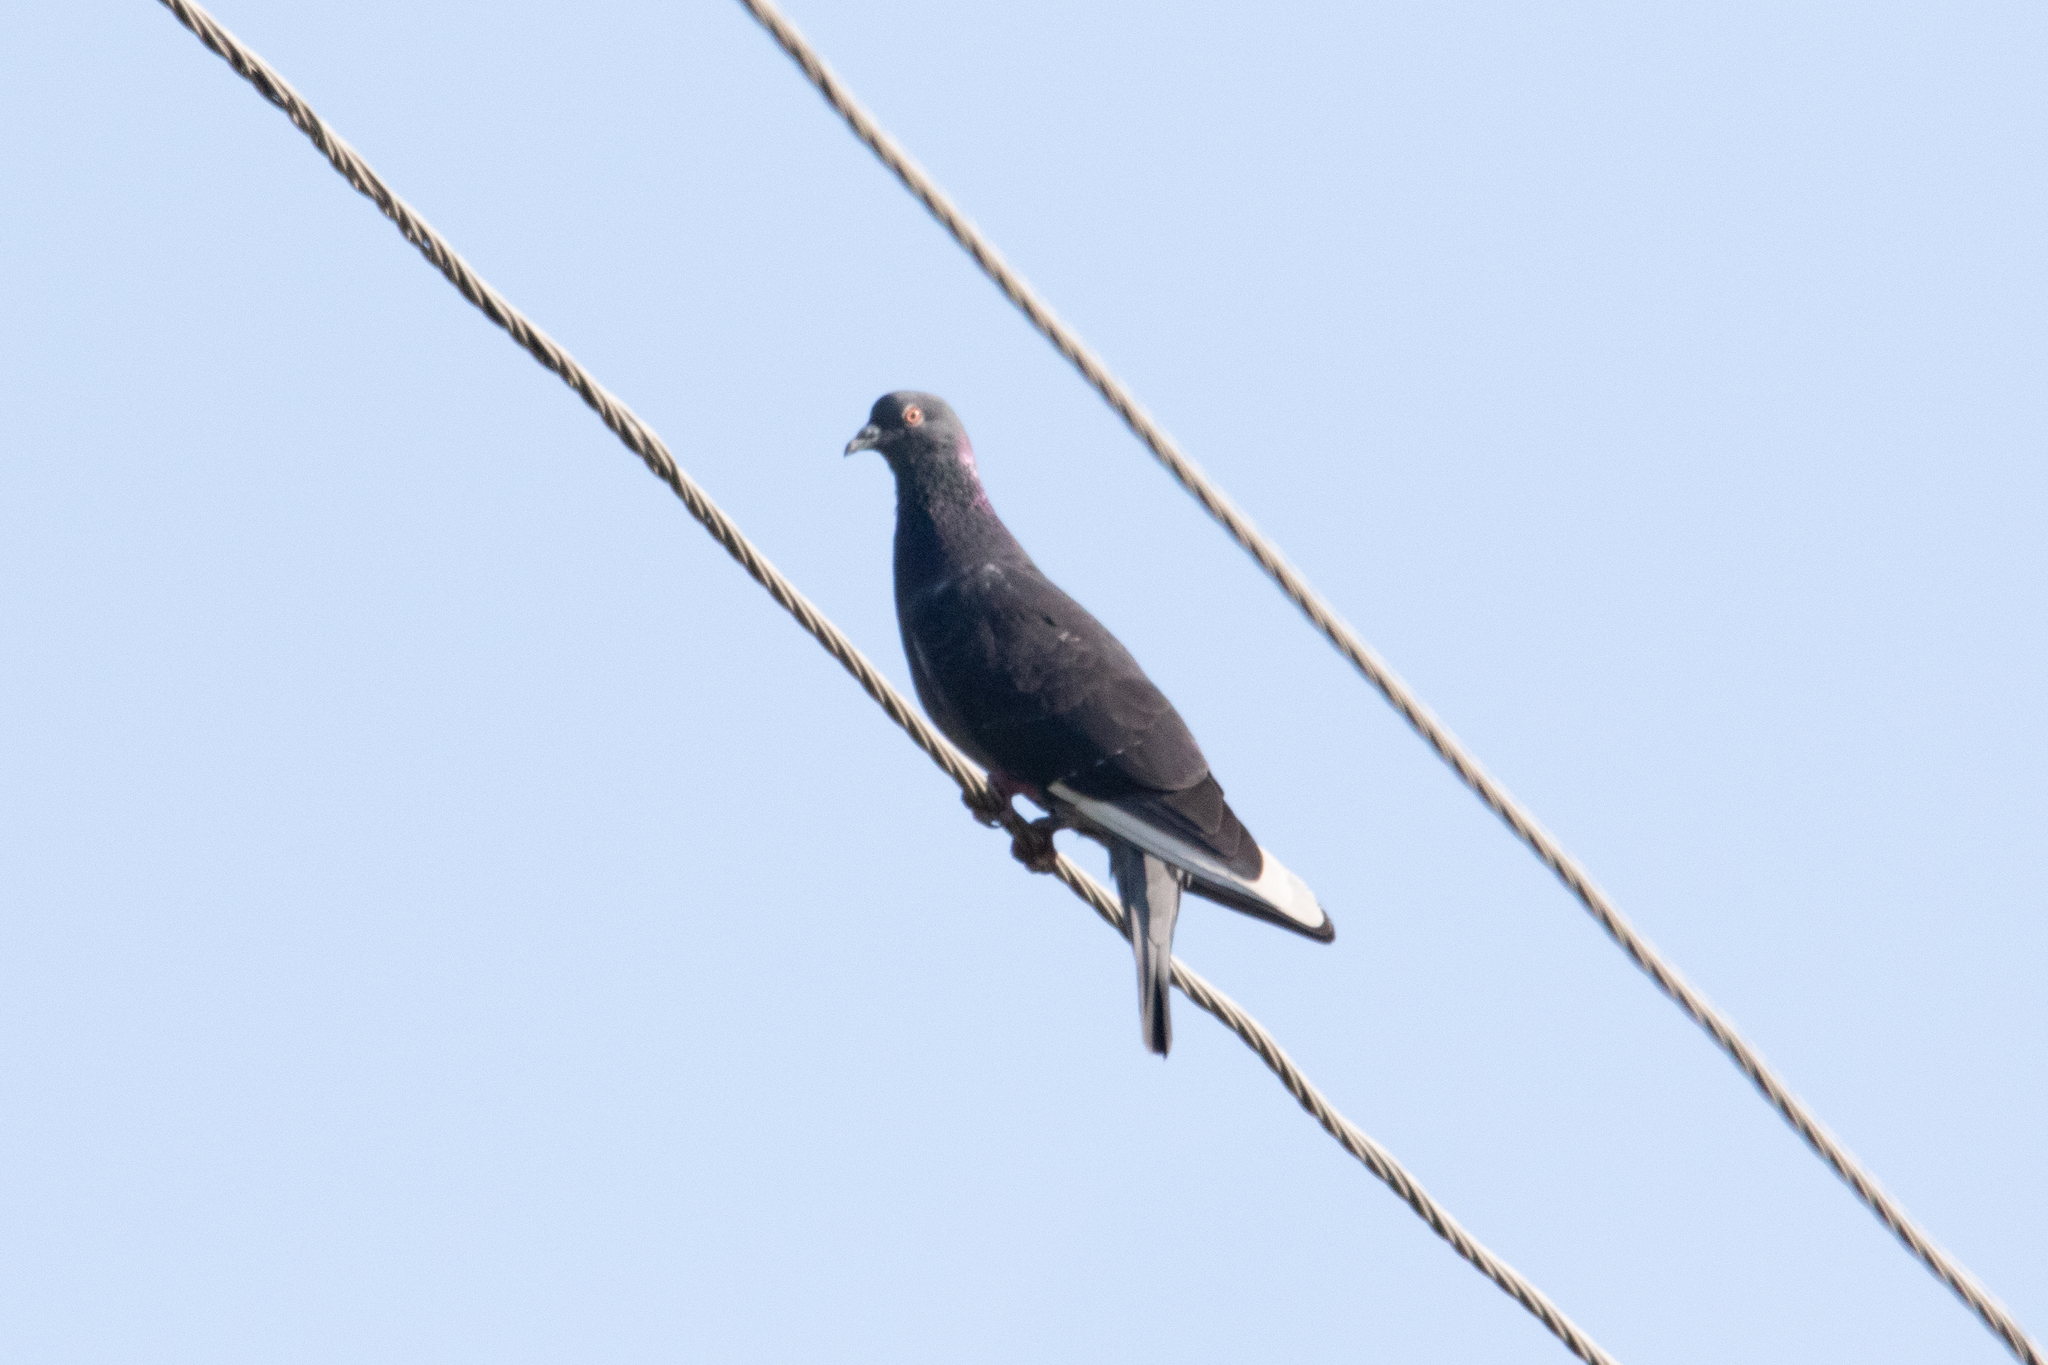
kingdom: Animalia
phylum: Chordata
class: Aves
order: Columbiformes
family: Columbidae
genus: Columba
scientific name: Columba livia
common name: Rock pigeon
